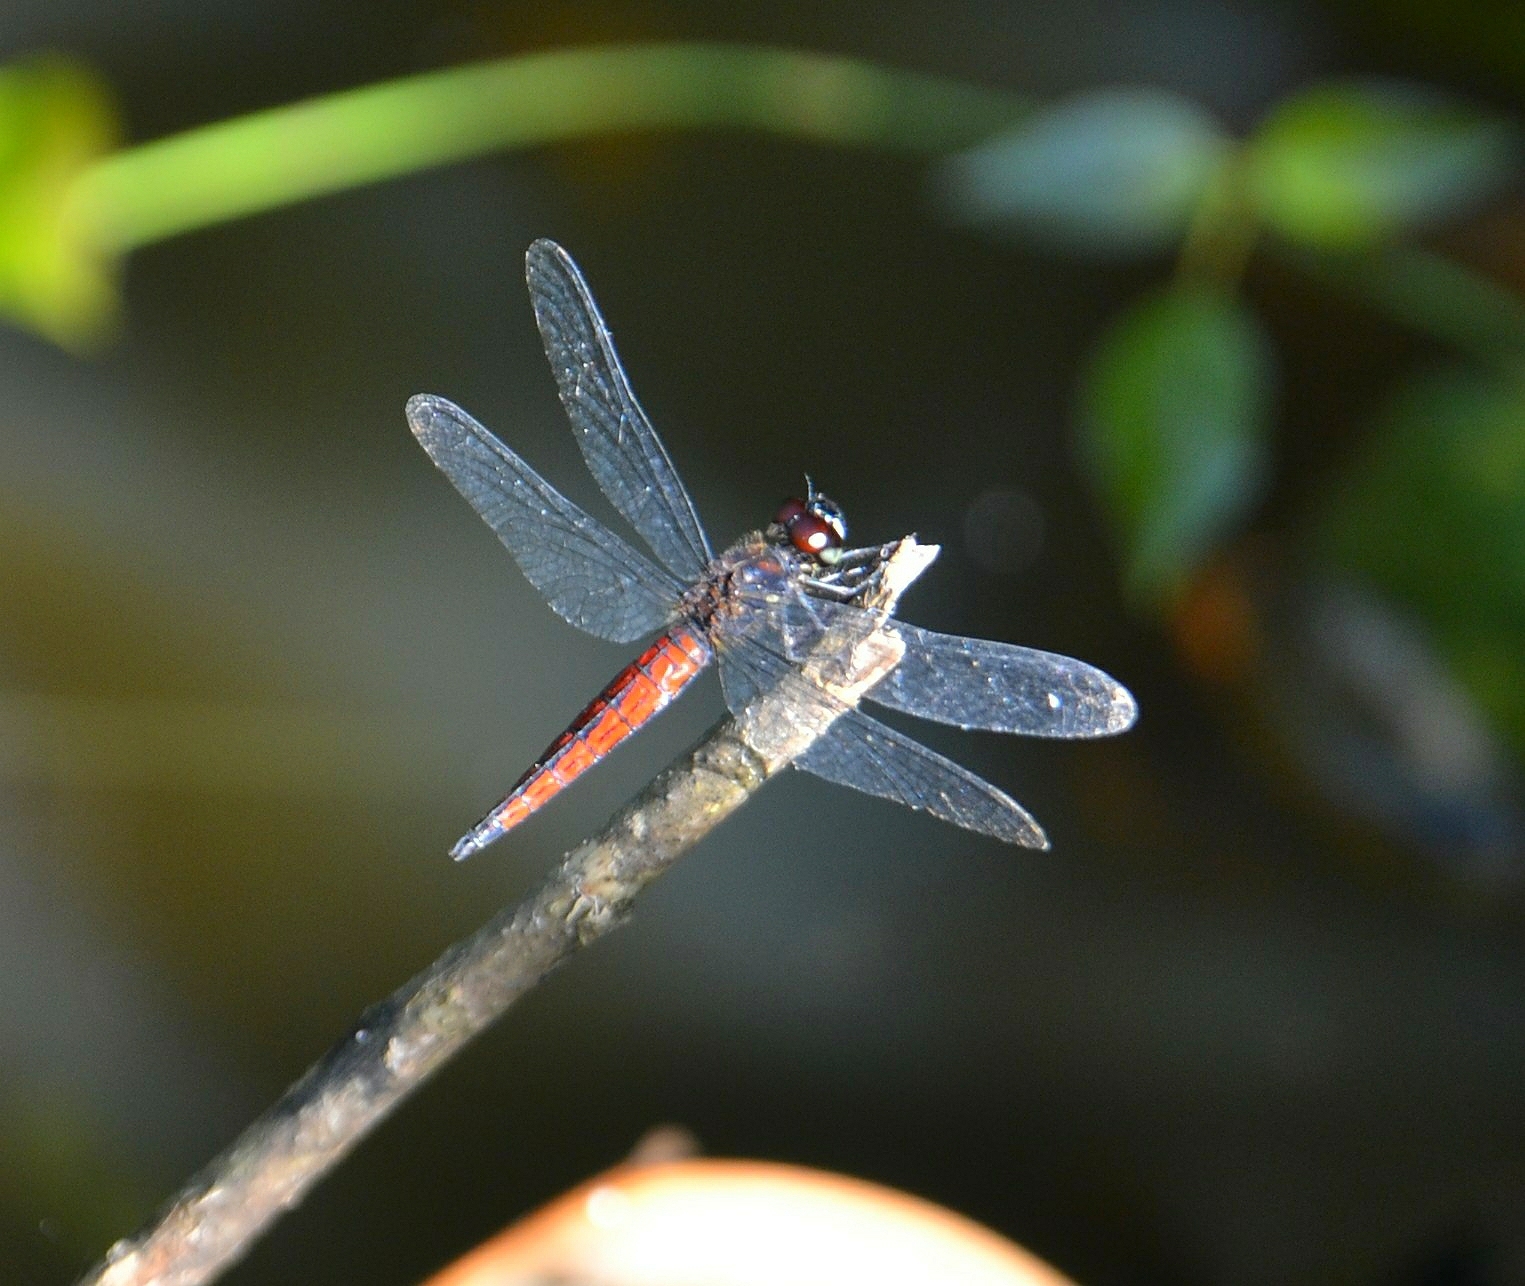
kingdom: Animalia
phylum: Arthropoda
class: Insecta
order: Odonata
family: Libellulidae
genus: Lyriothemis
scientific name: Lyriothemis acigastra
